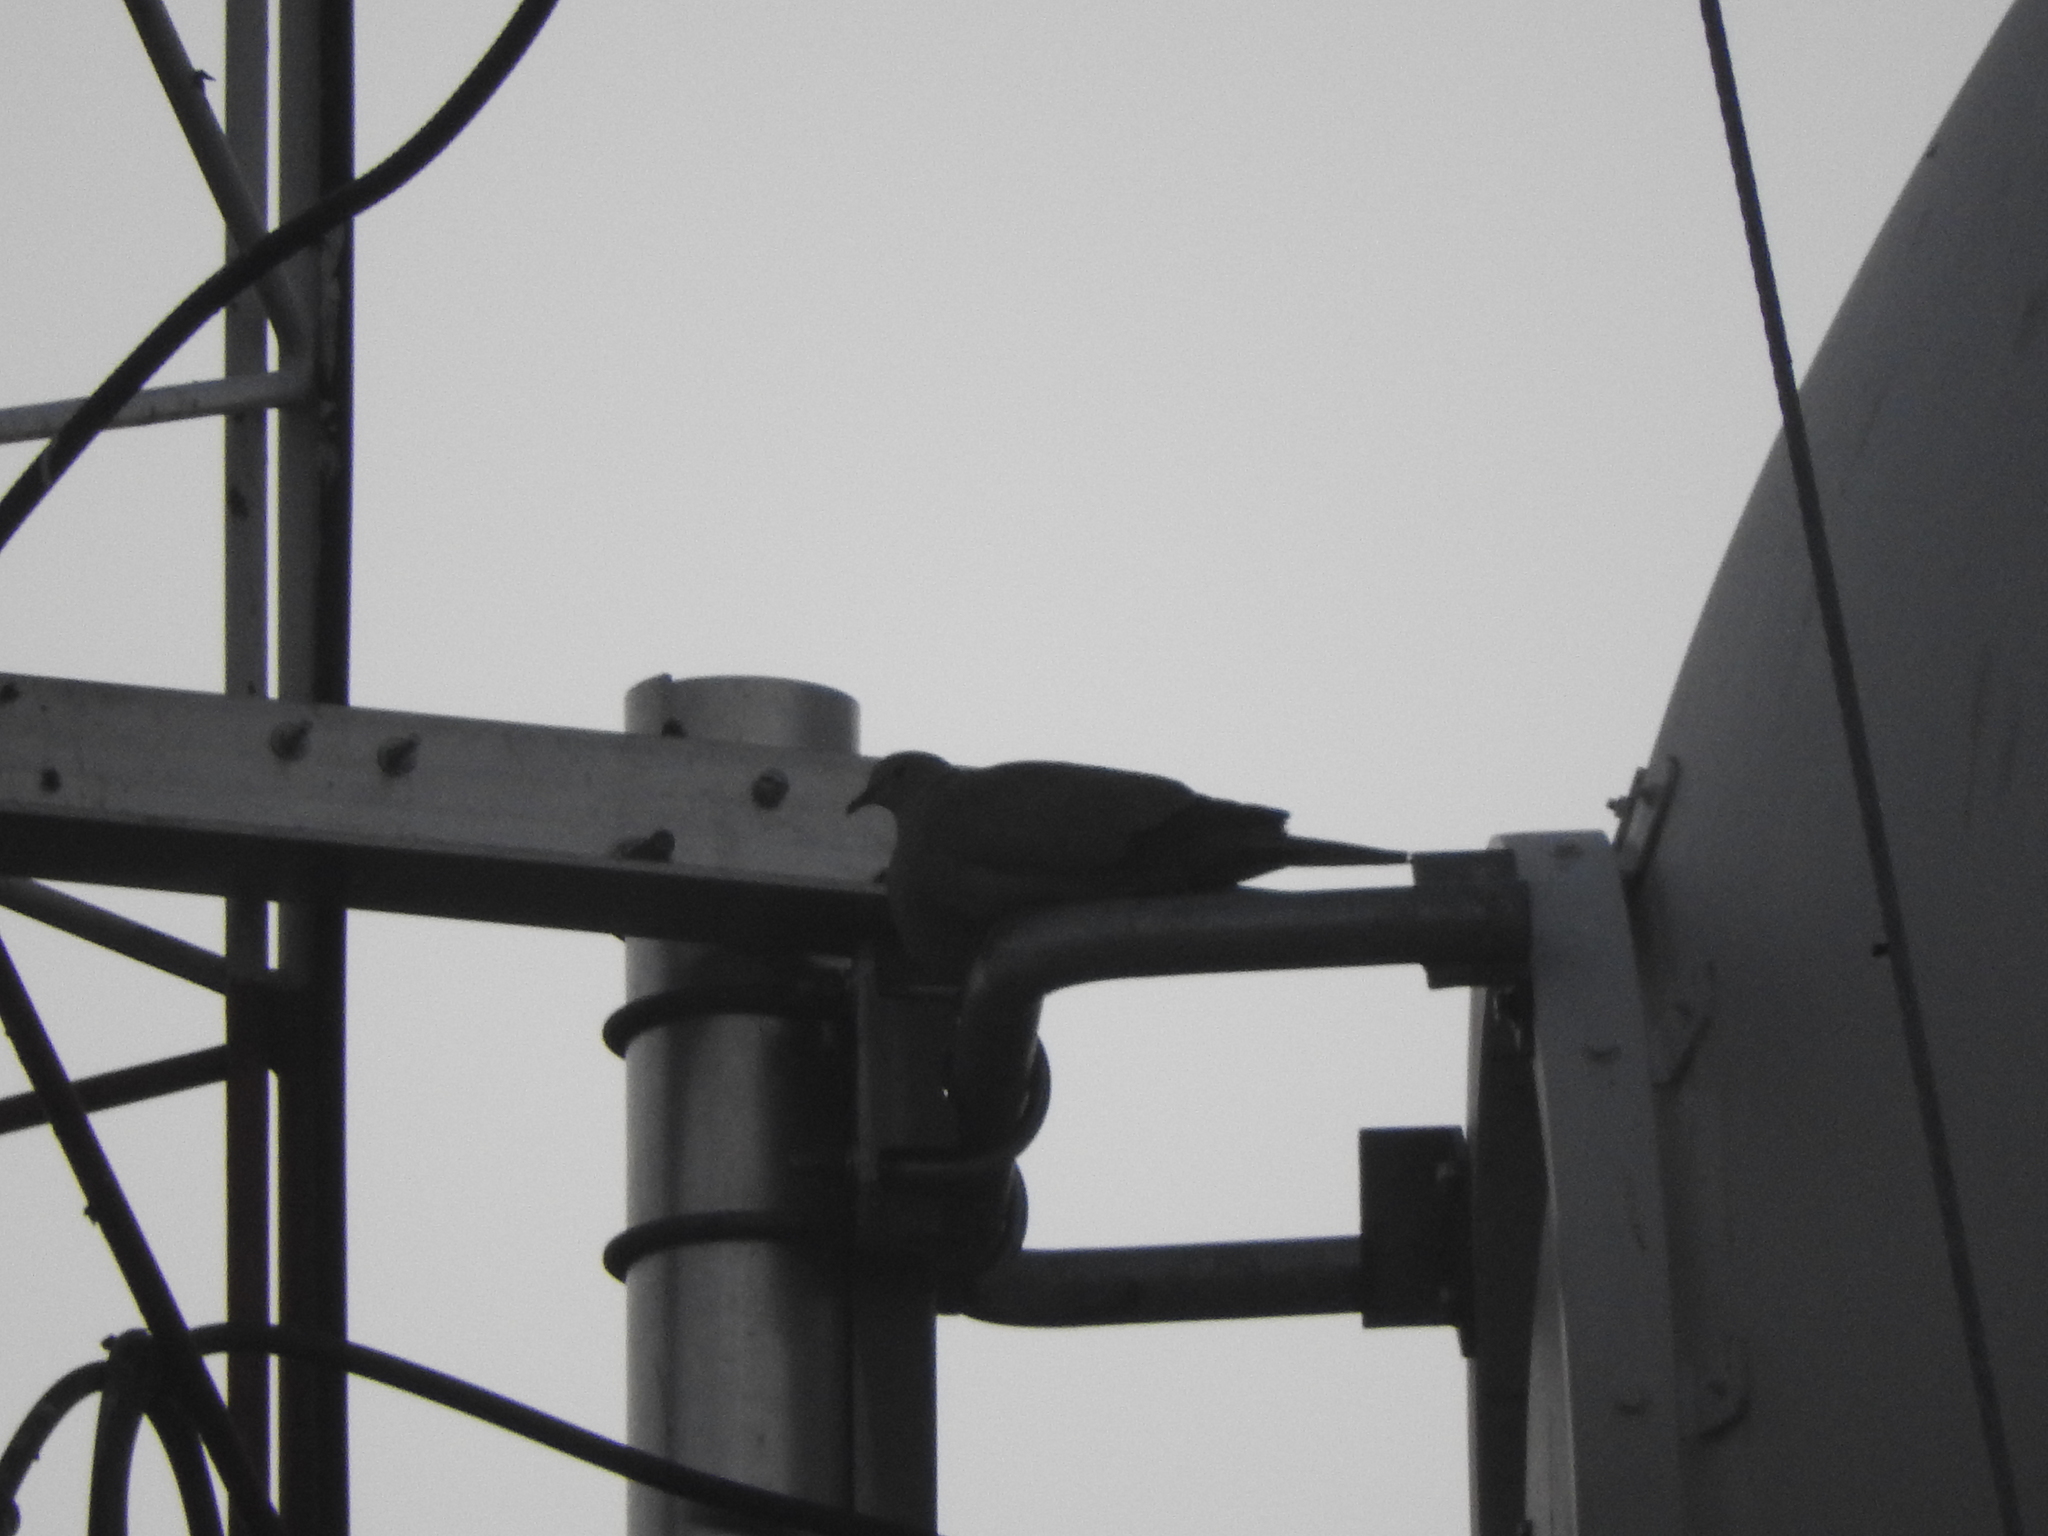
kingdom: Animalia
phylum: Chordata
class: Aves
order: Columbiformes
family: Columbidae
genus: Streptopelia
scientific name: Streptopelia decaocto
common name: Eurasian collared dove
